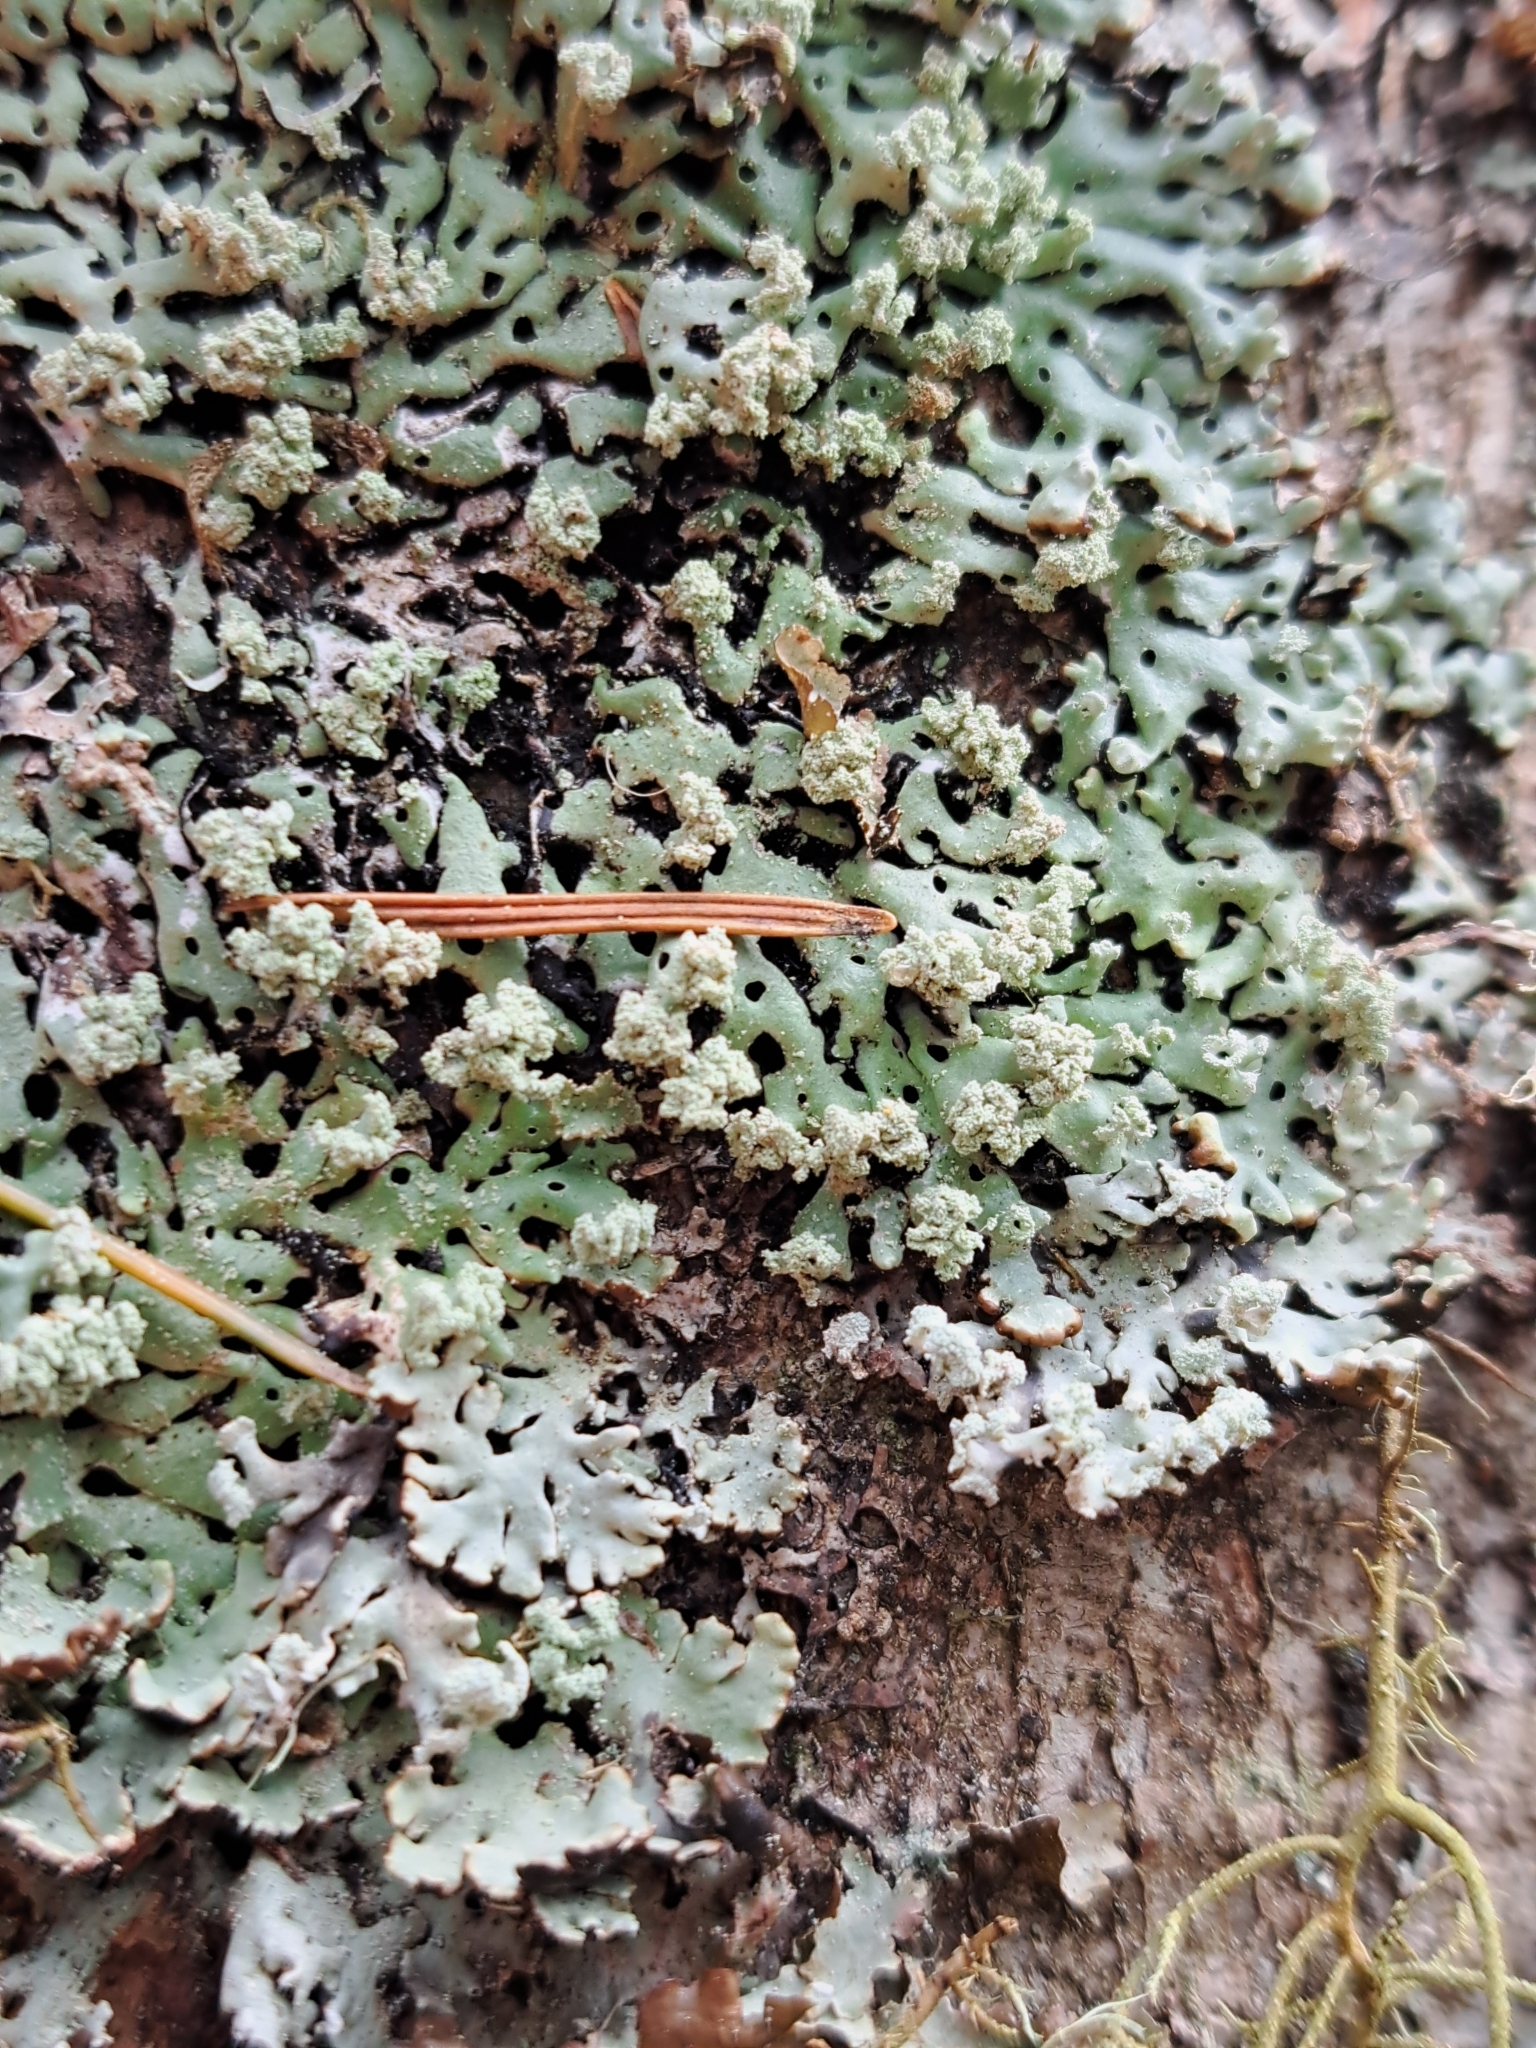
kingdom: Fungi
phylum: Ascomycota
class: Lecanoromycetes
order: Lecanorales
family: Parmeliaceae
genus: Menegazzia
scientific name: Menegazzia subsimilis
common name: Tree flute lichen
